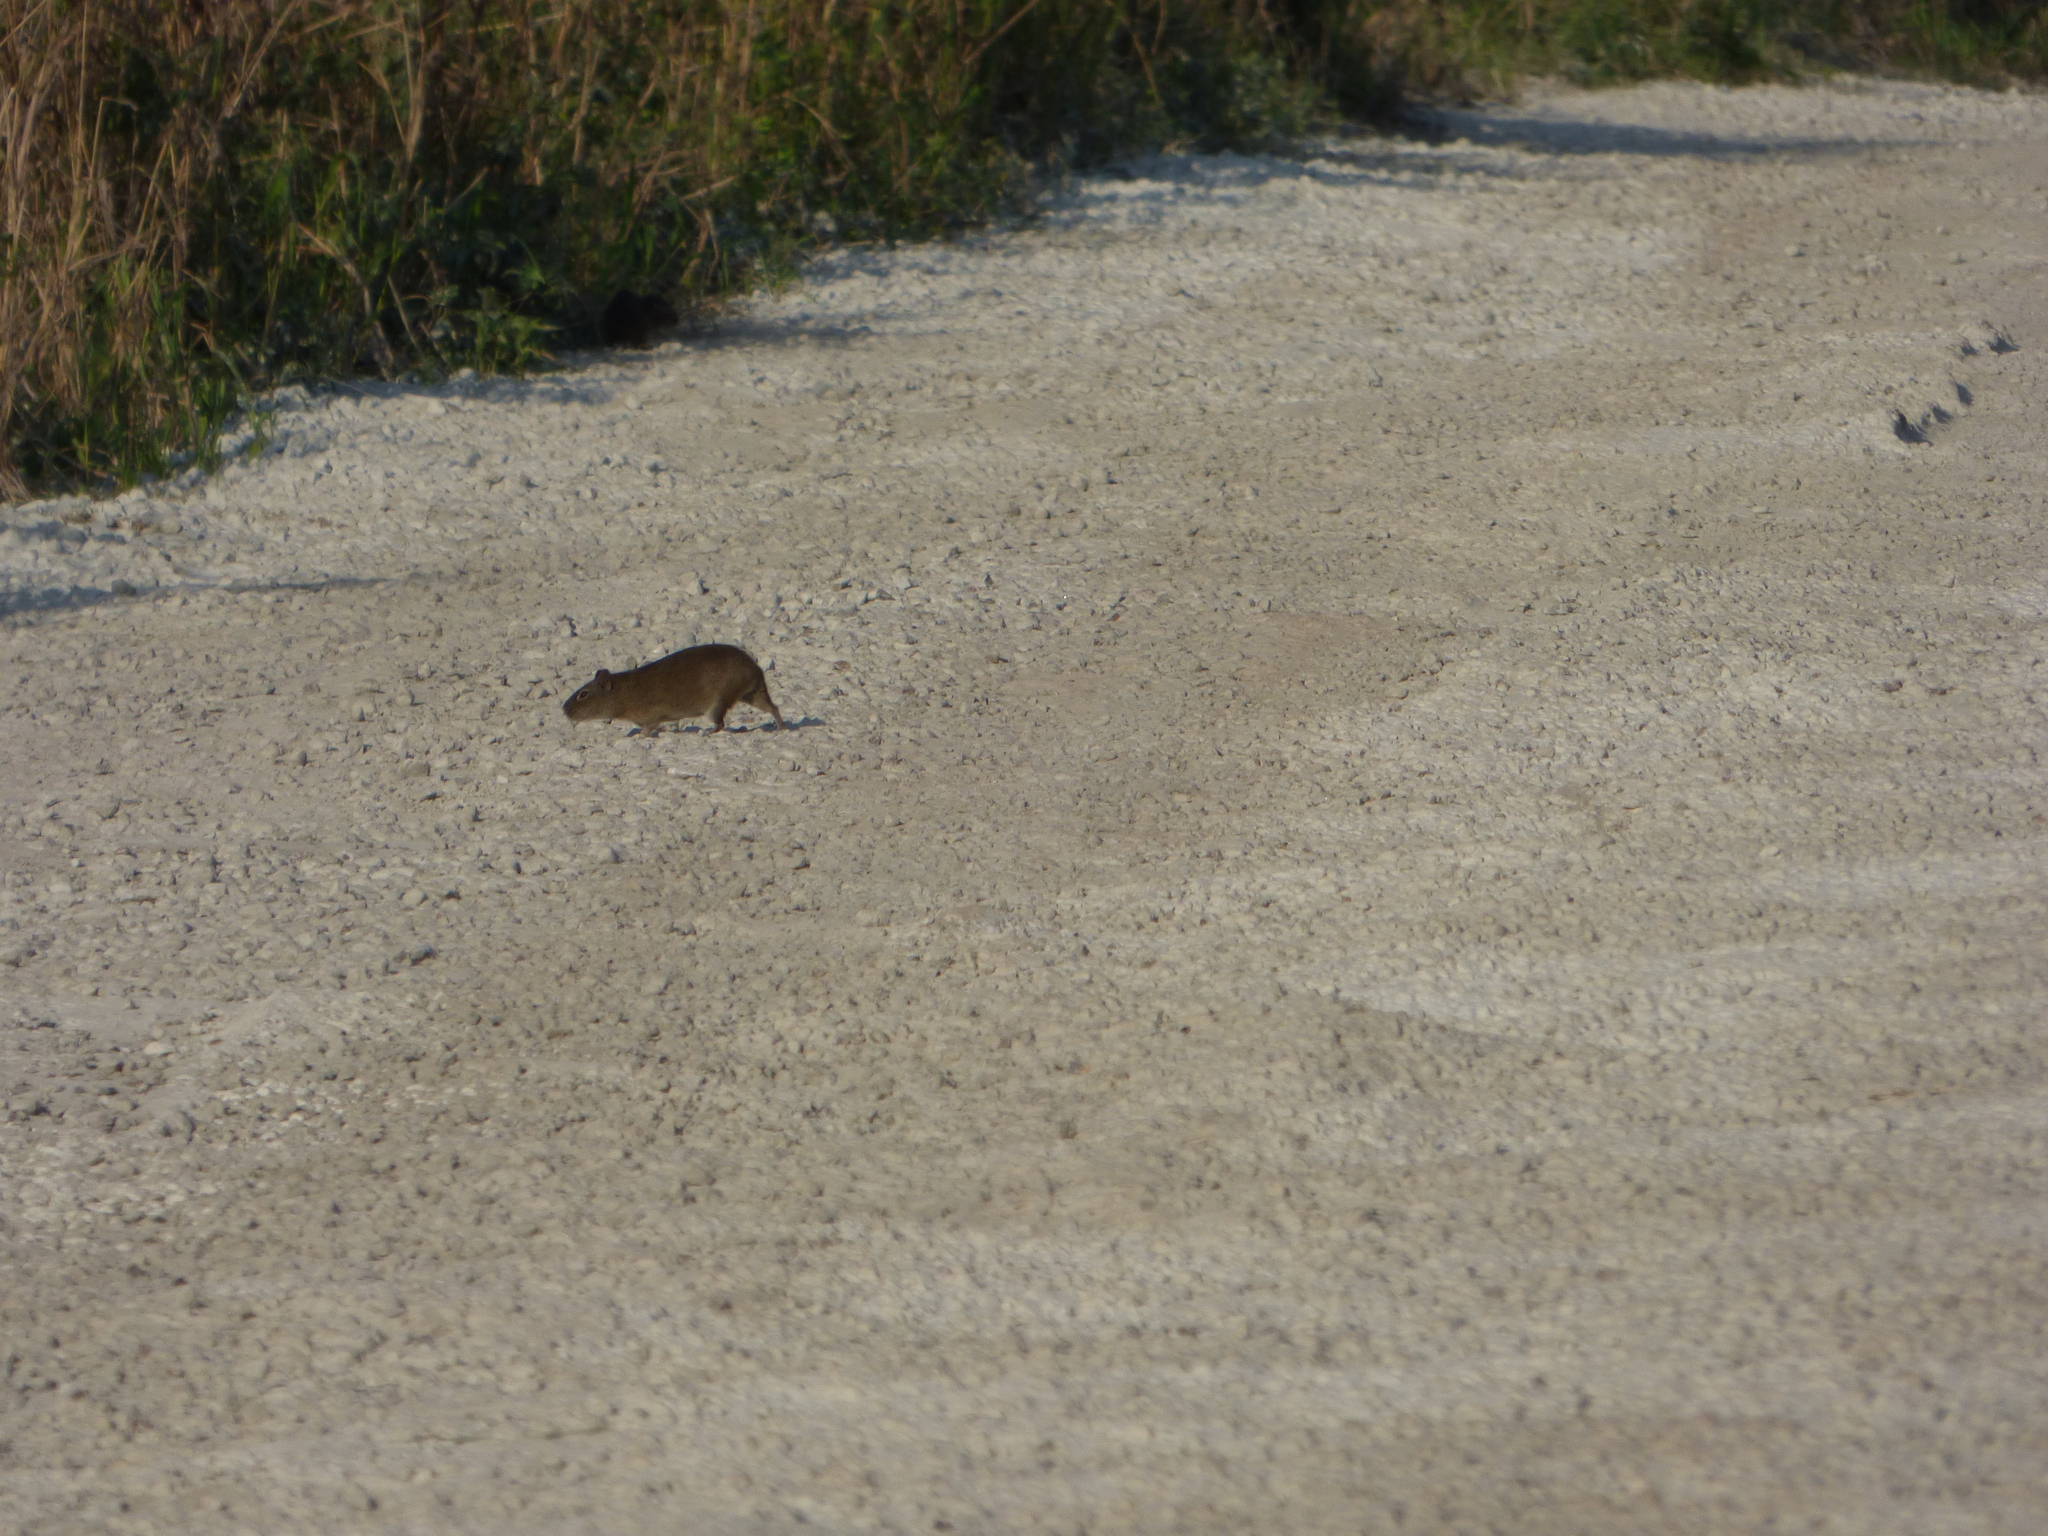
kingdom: Animalia
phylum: Chordata
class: Mammalia
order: Rodentia
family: Caviidae
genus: Cavia
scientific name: Cavia aperea
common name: Brazilian guinea pig
